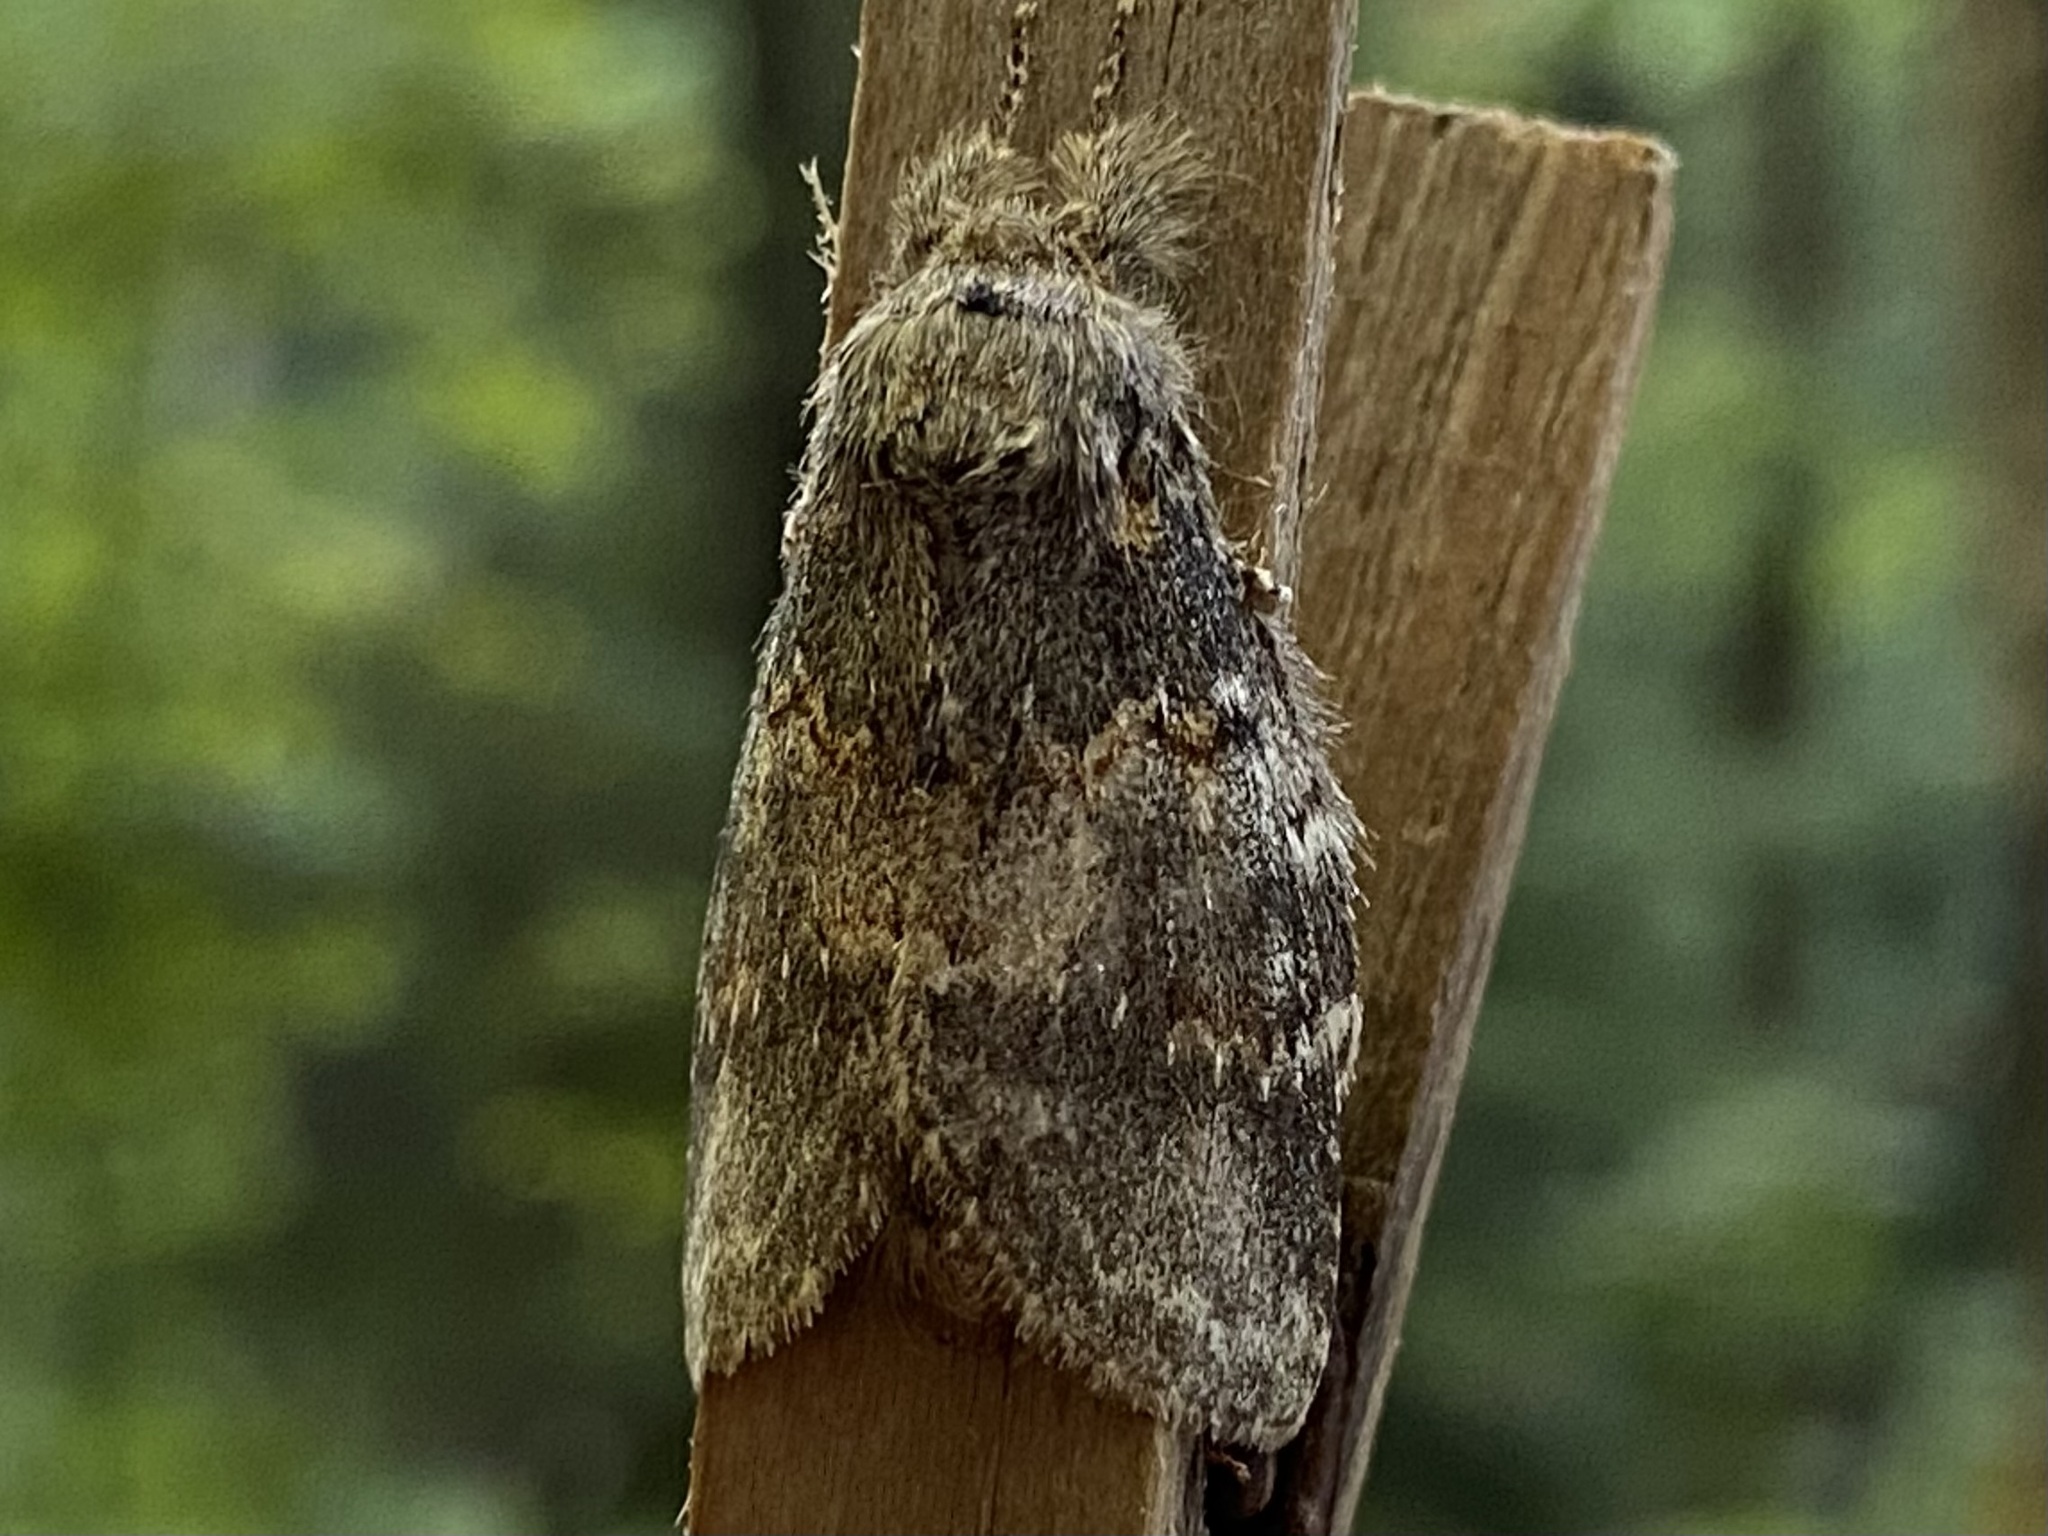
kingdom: Animalia
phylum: Arthropoda
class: Insecta
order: Lepidoptera
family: Notodontidae
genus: Peridea
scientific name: Peridea angulosa
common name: Angulose prominent
